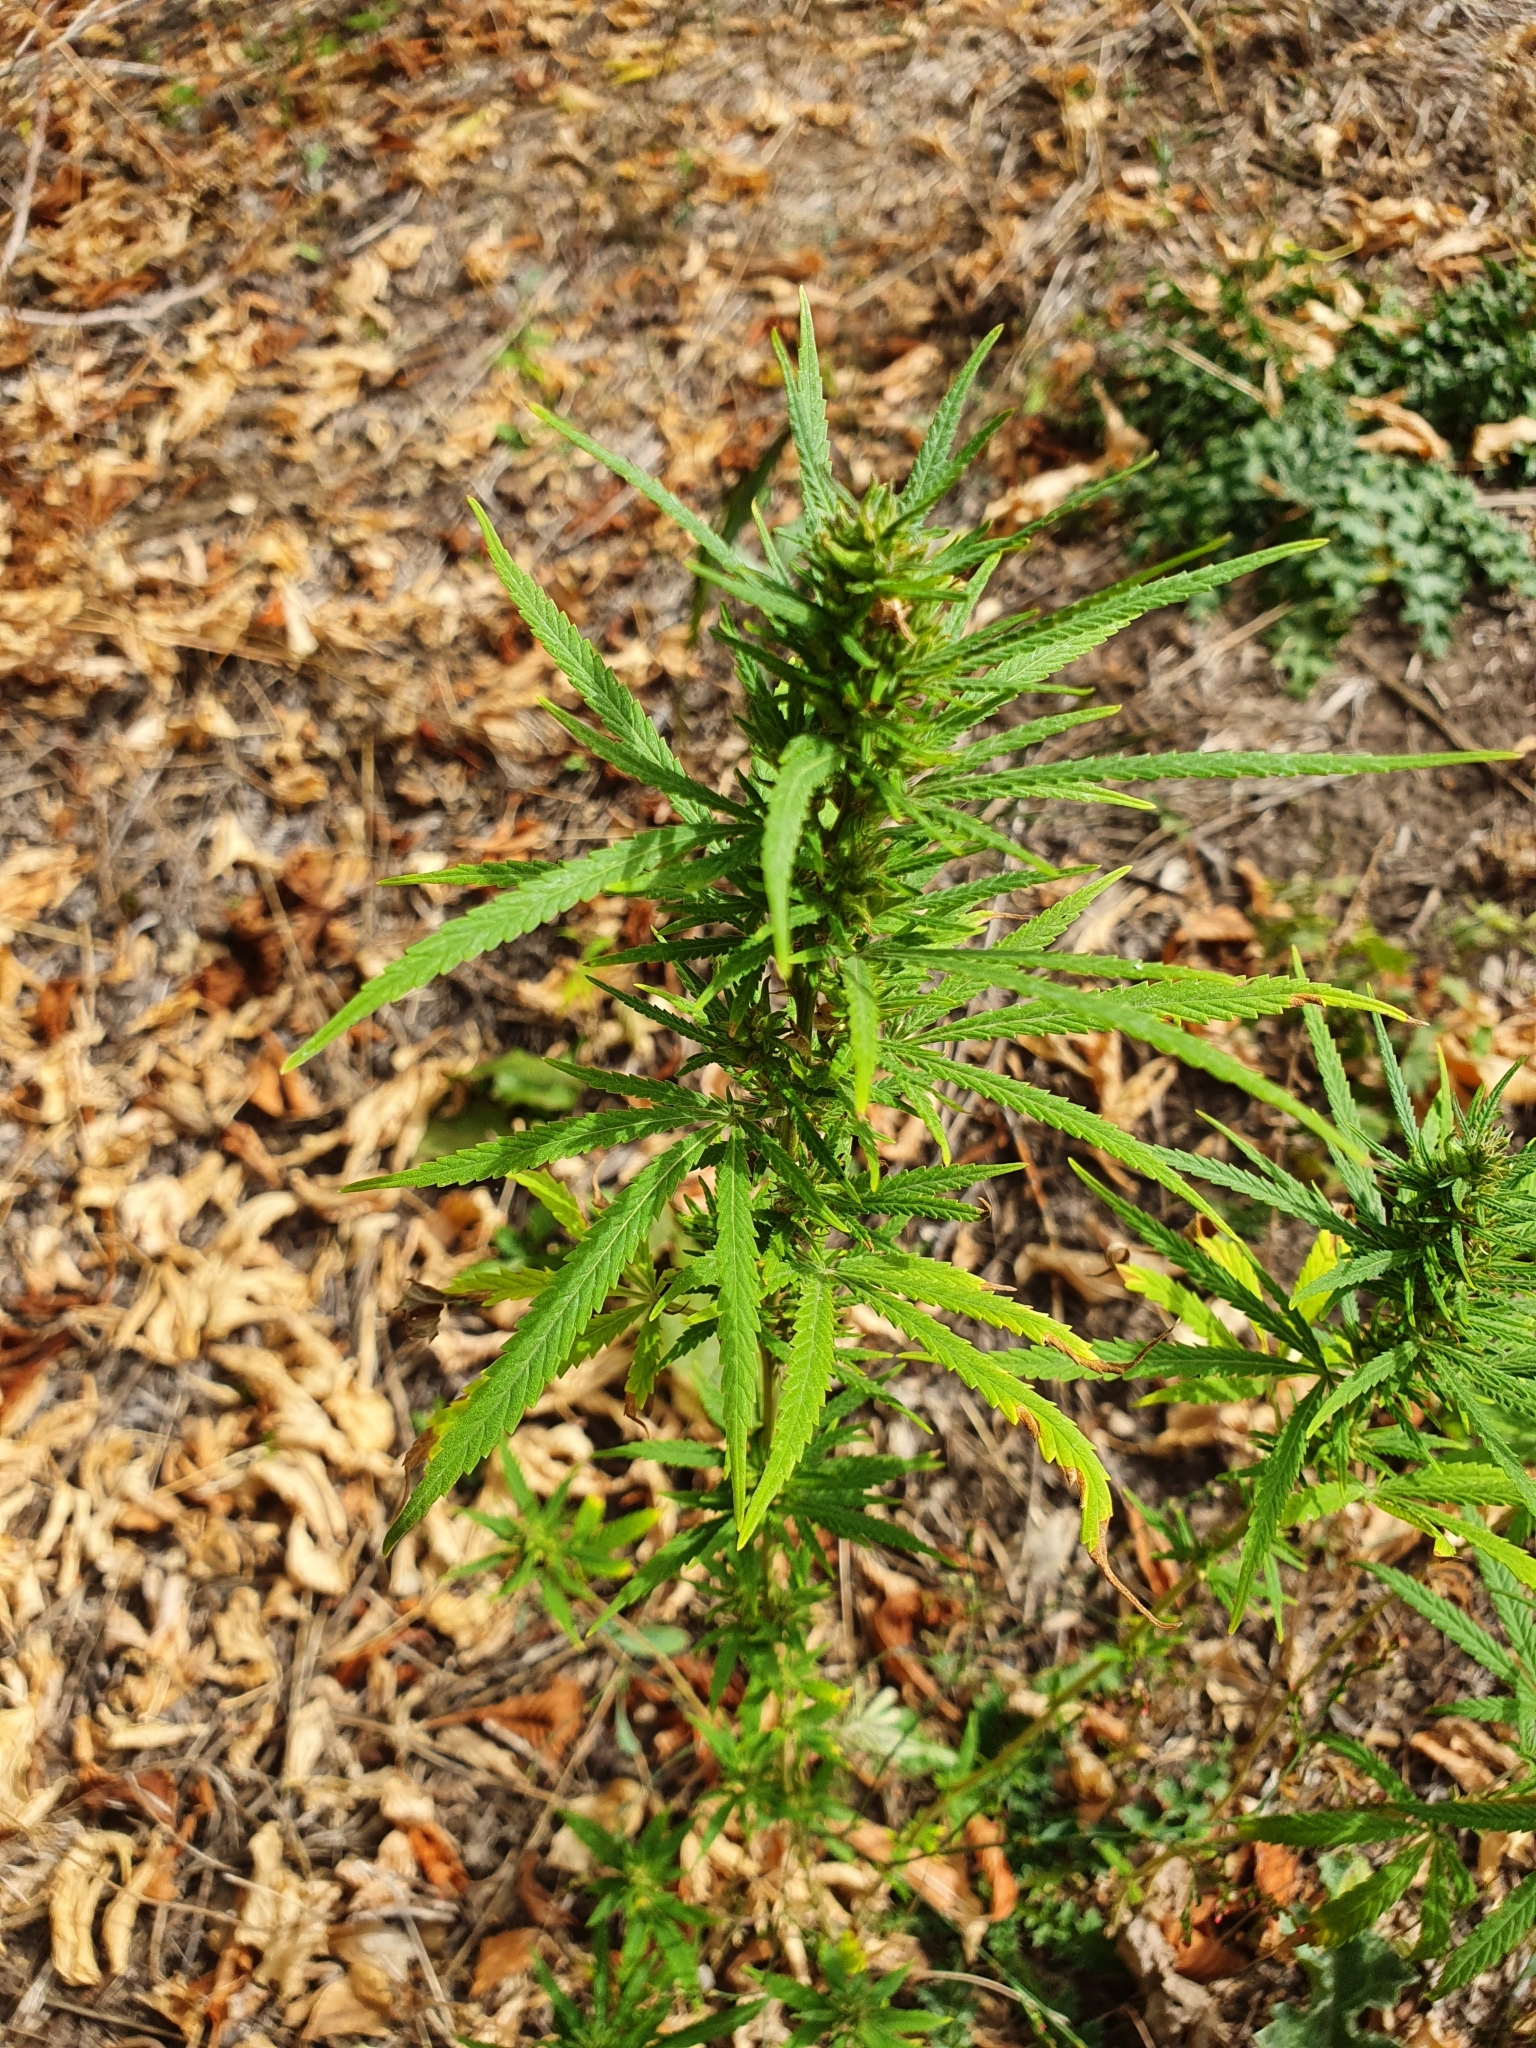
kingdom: Plantae
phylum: Tracheophyta
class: Magnoliopsida
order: Rosales
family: Cannabaceae
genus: Cannabis
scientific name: Cannabis sativa
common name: Hemp
